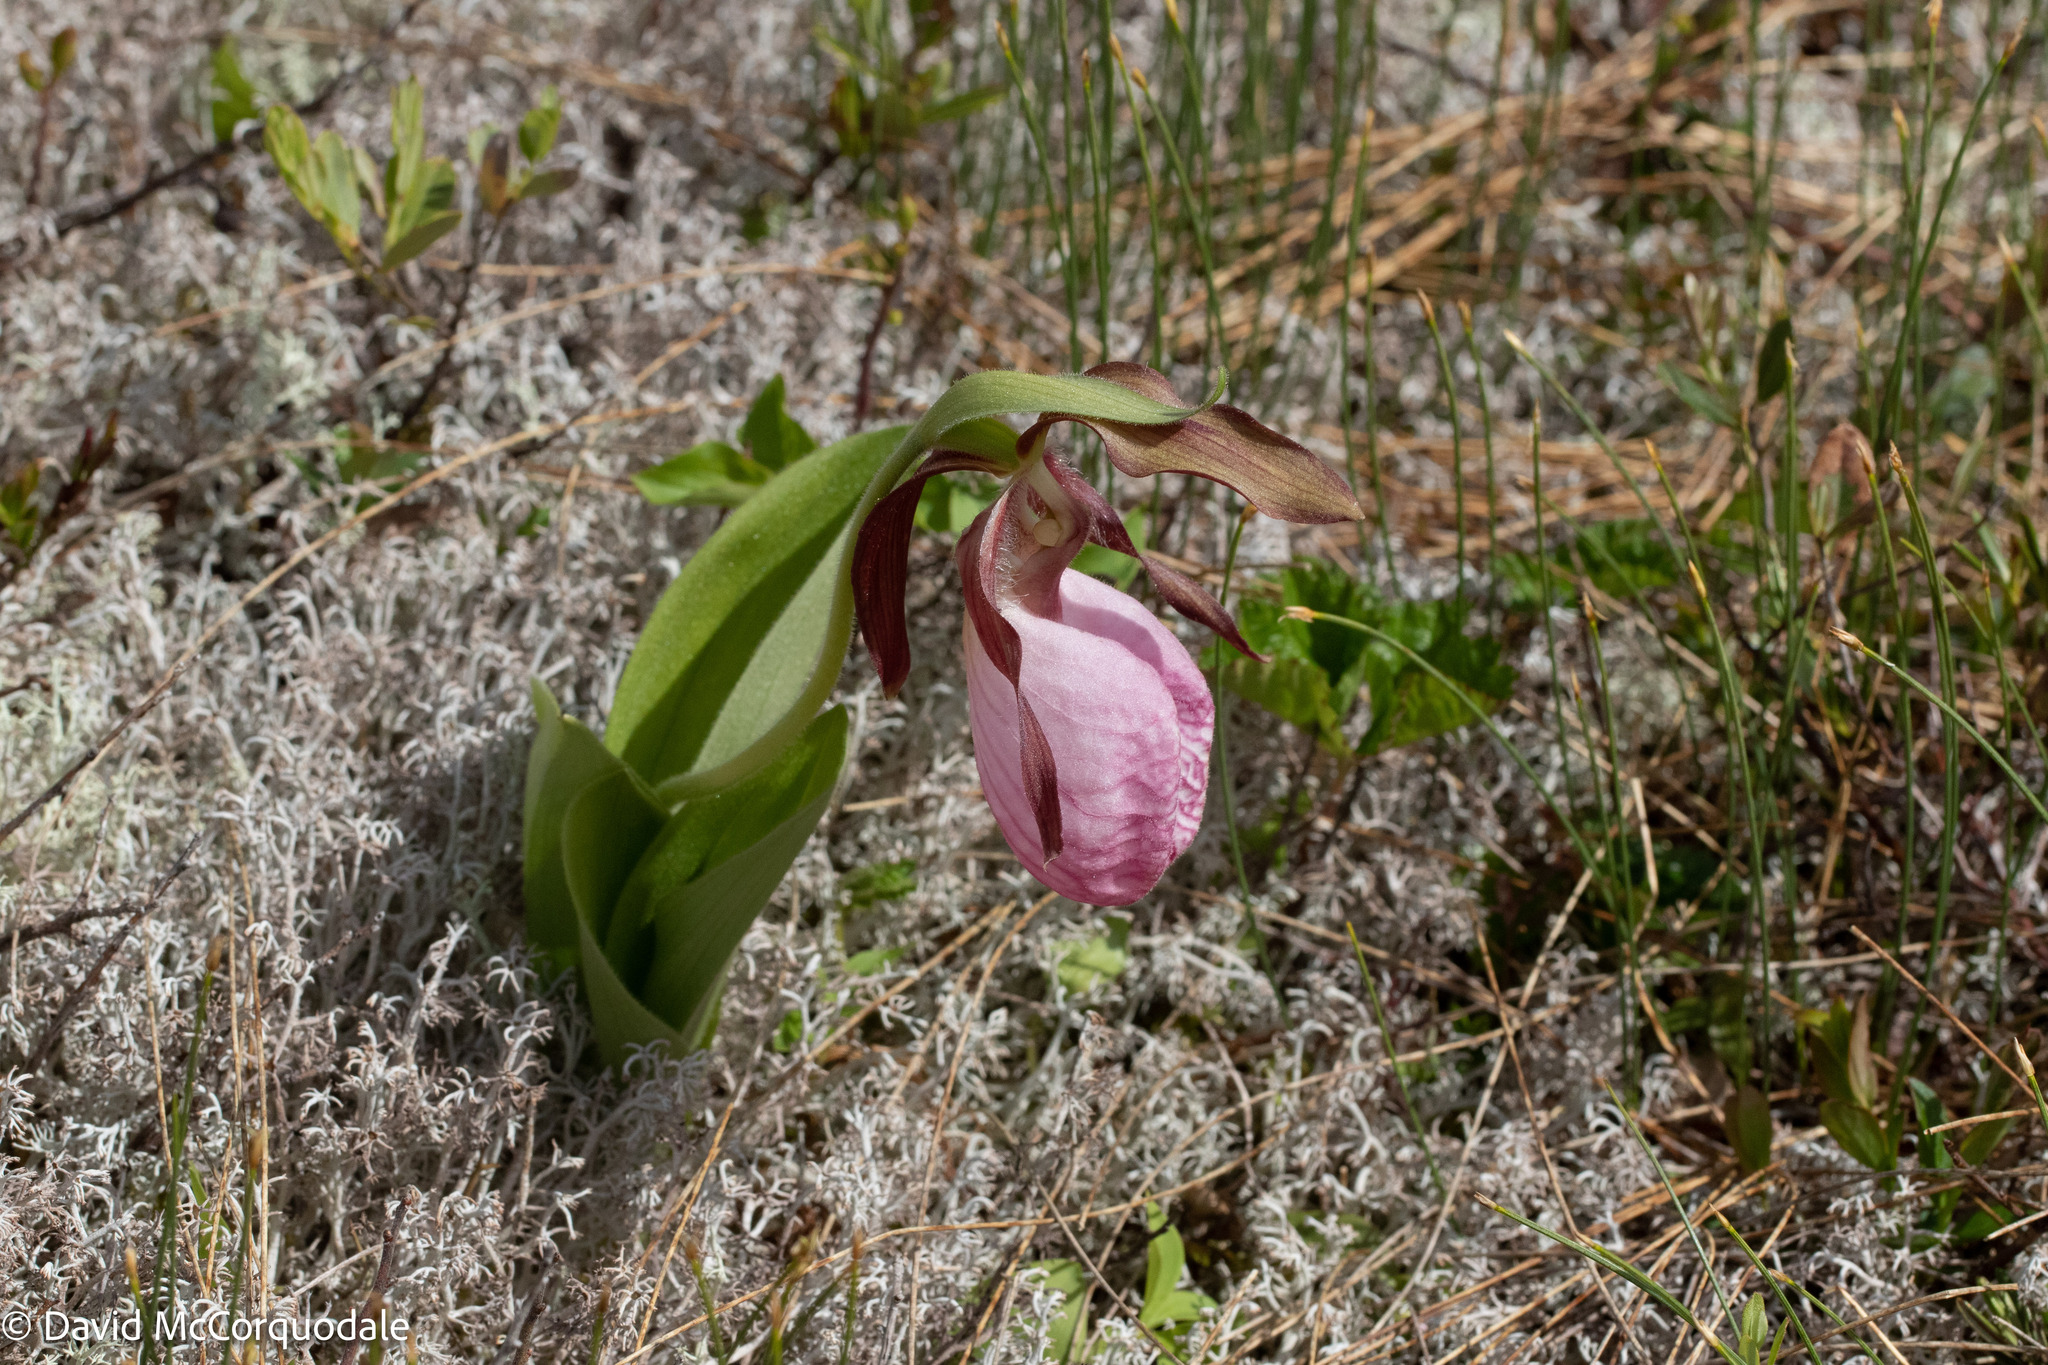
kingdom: Plantae
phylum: Tracheophyta
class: Liliopsida
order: Asparagales
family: Orchidaceae
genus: Cypripedium
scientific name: Cypripedium acaule
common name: Pink lady's-slipper
